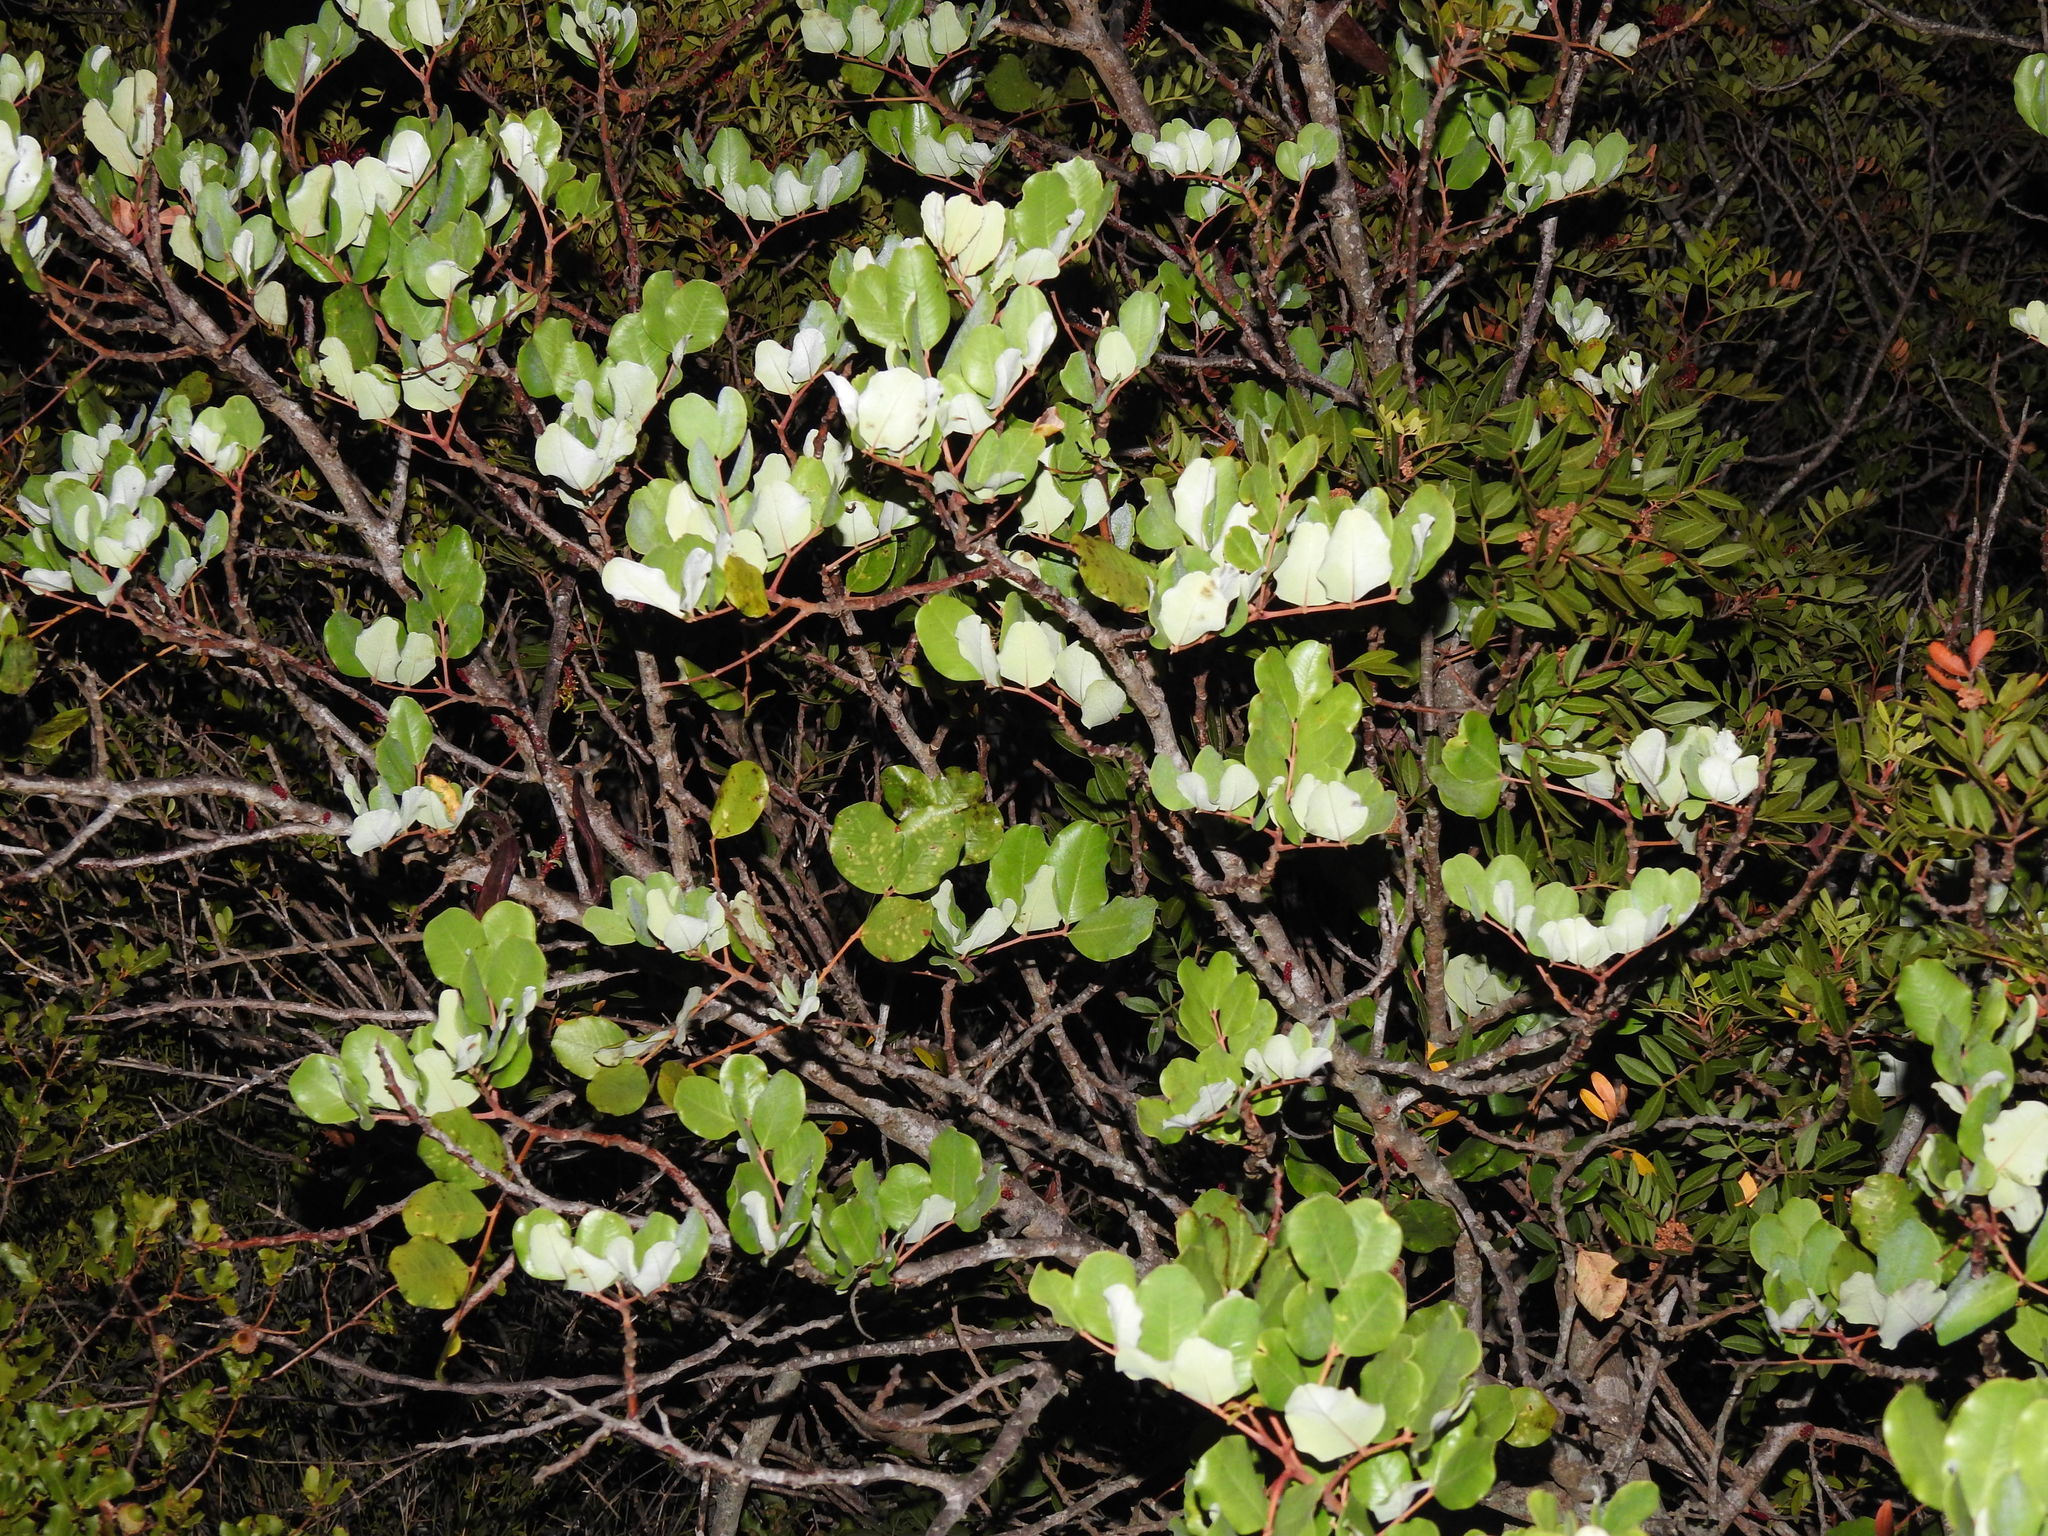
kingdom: Plantae
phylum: Tracheophyta
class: Magnoliopsida
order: Fabales
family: Fabaceae
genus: Ceratonia
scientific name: Ceratonia siliqua
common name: Carob
